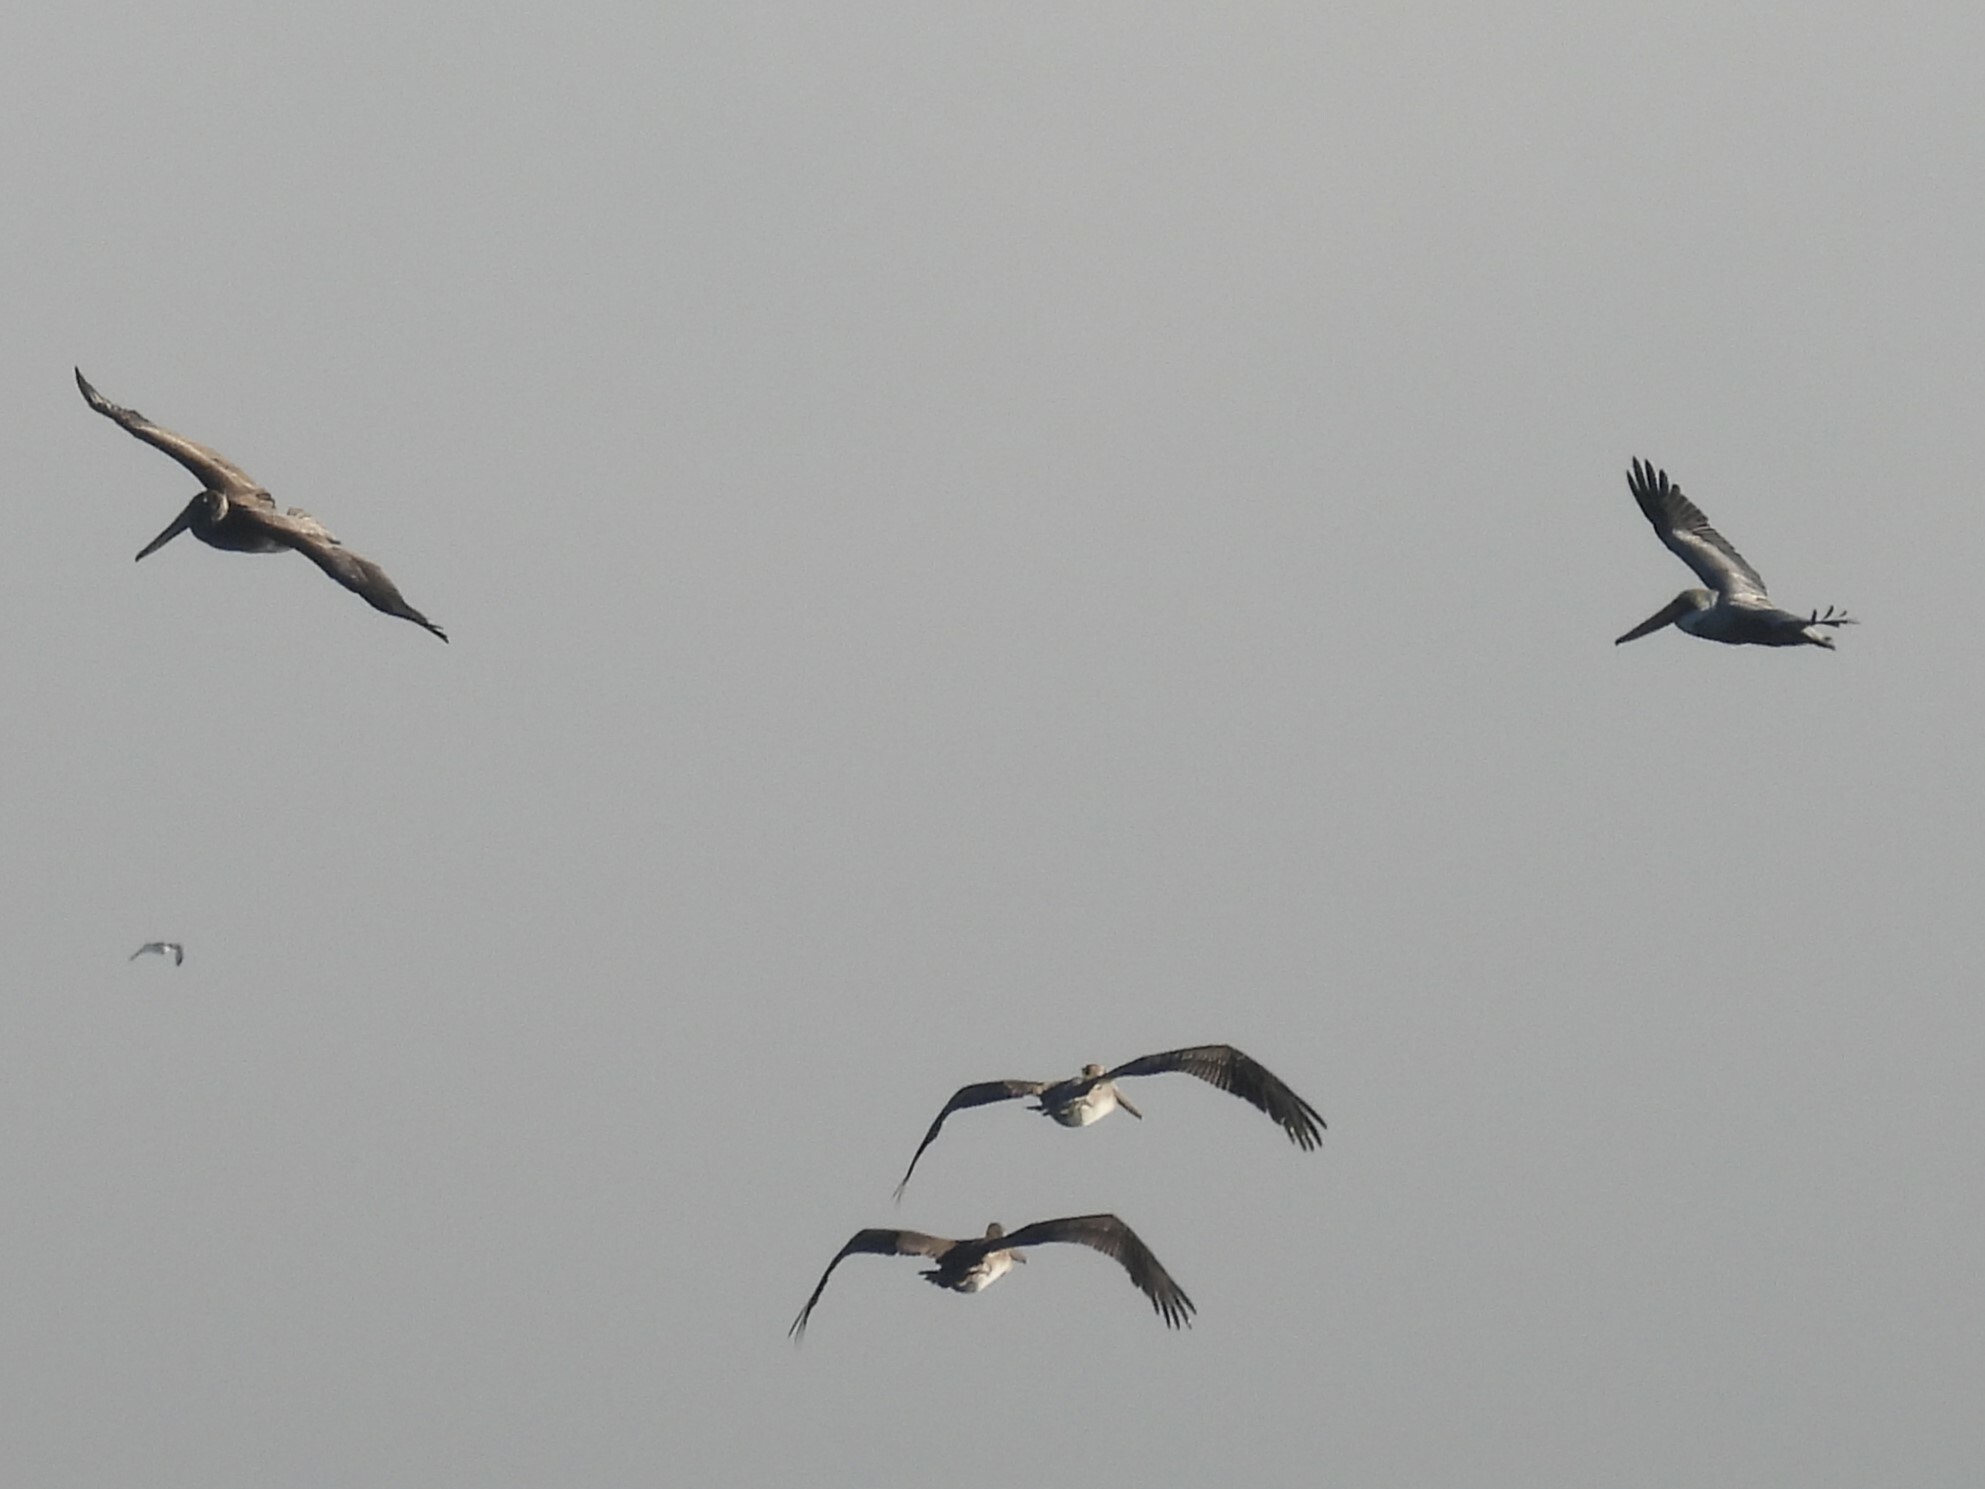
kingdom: Animalia
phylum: Chordata
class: Aves
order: Pelecaniformes
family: Pelecanidae
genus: Pelecanus
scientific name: Pelecanus occidentalis
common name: Brown pelican
